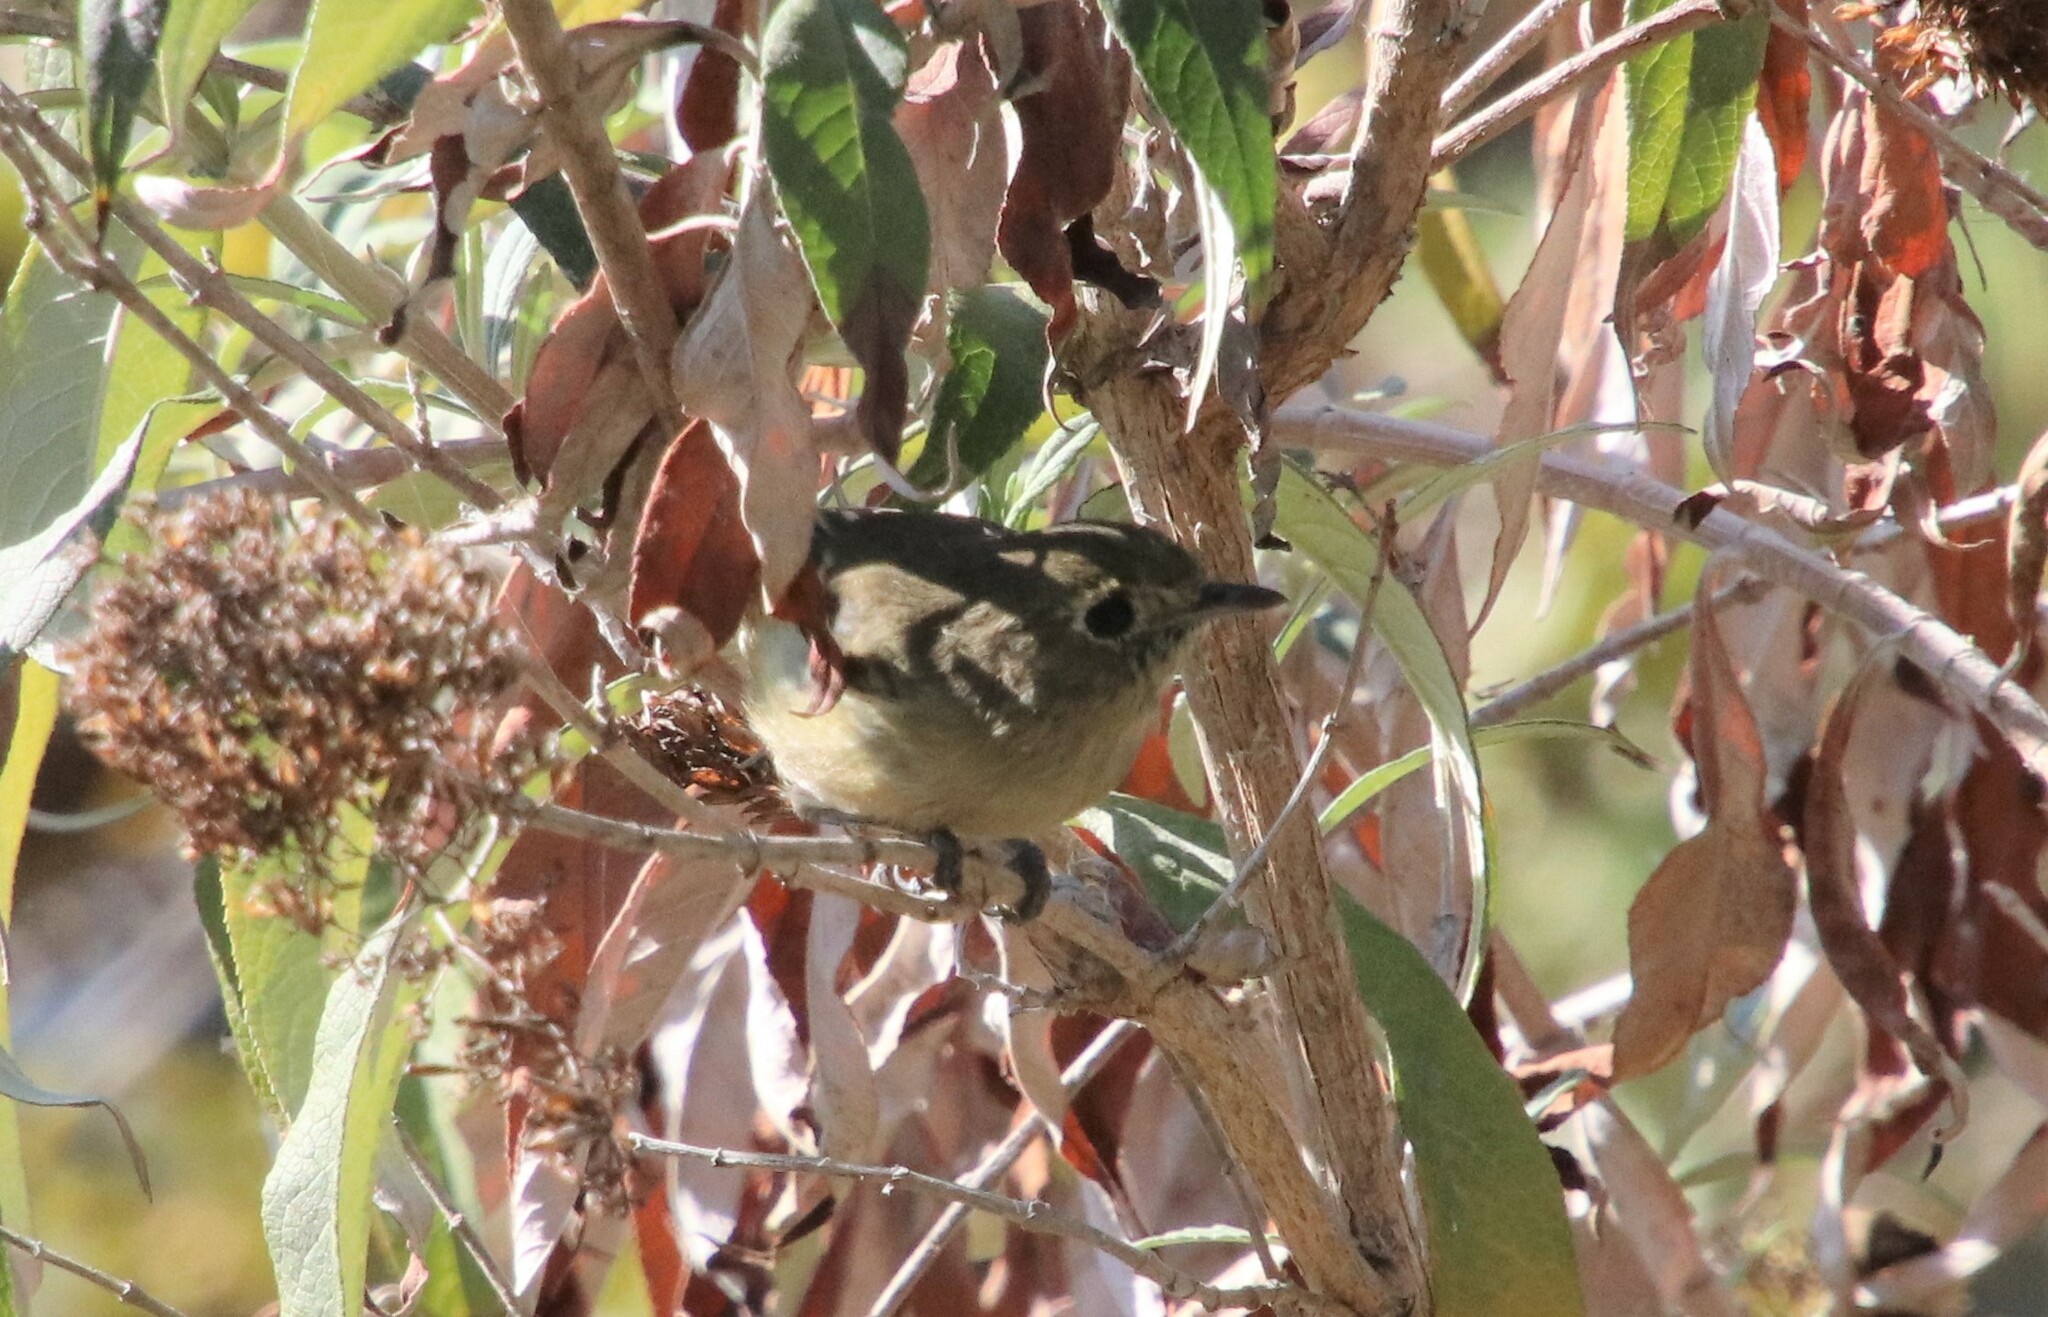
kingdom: Animalia
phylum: Chordata
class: Aves
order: Passeriformes
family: Vireonidae
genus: Vireo
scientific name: Vireo huttoni
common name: Hutton's vireo
